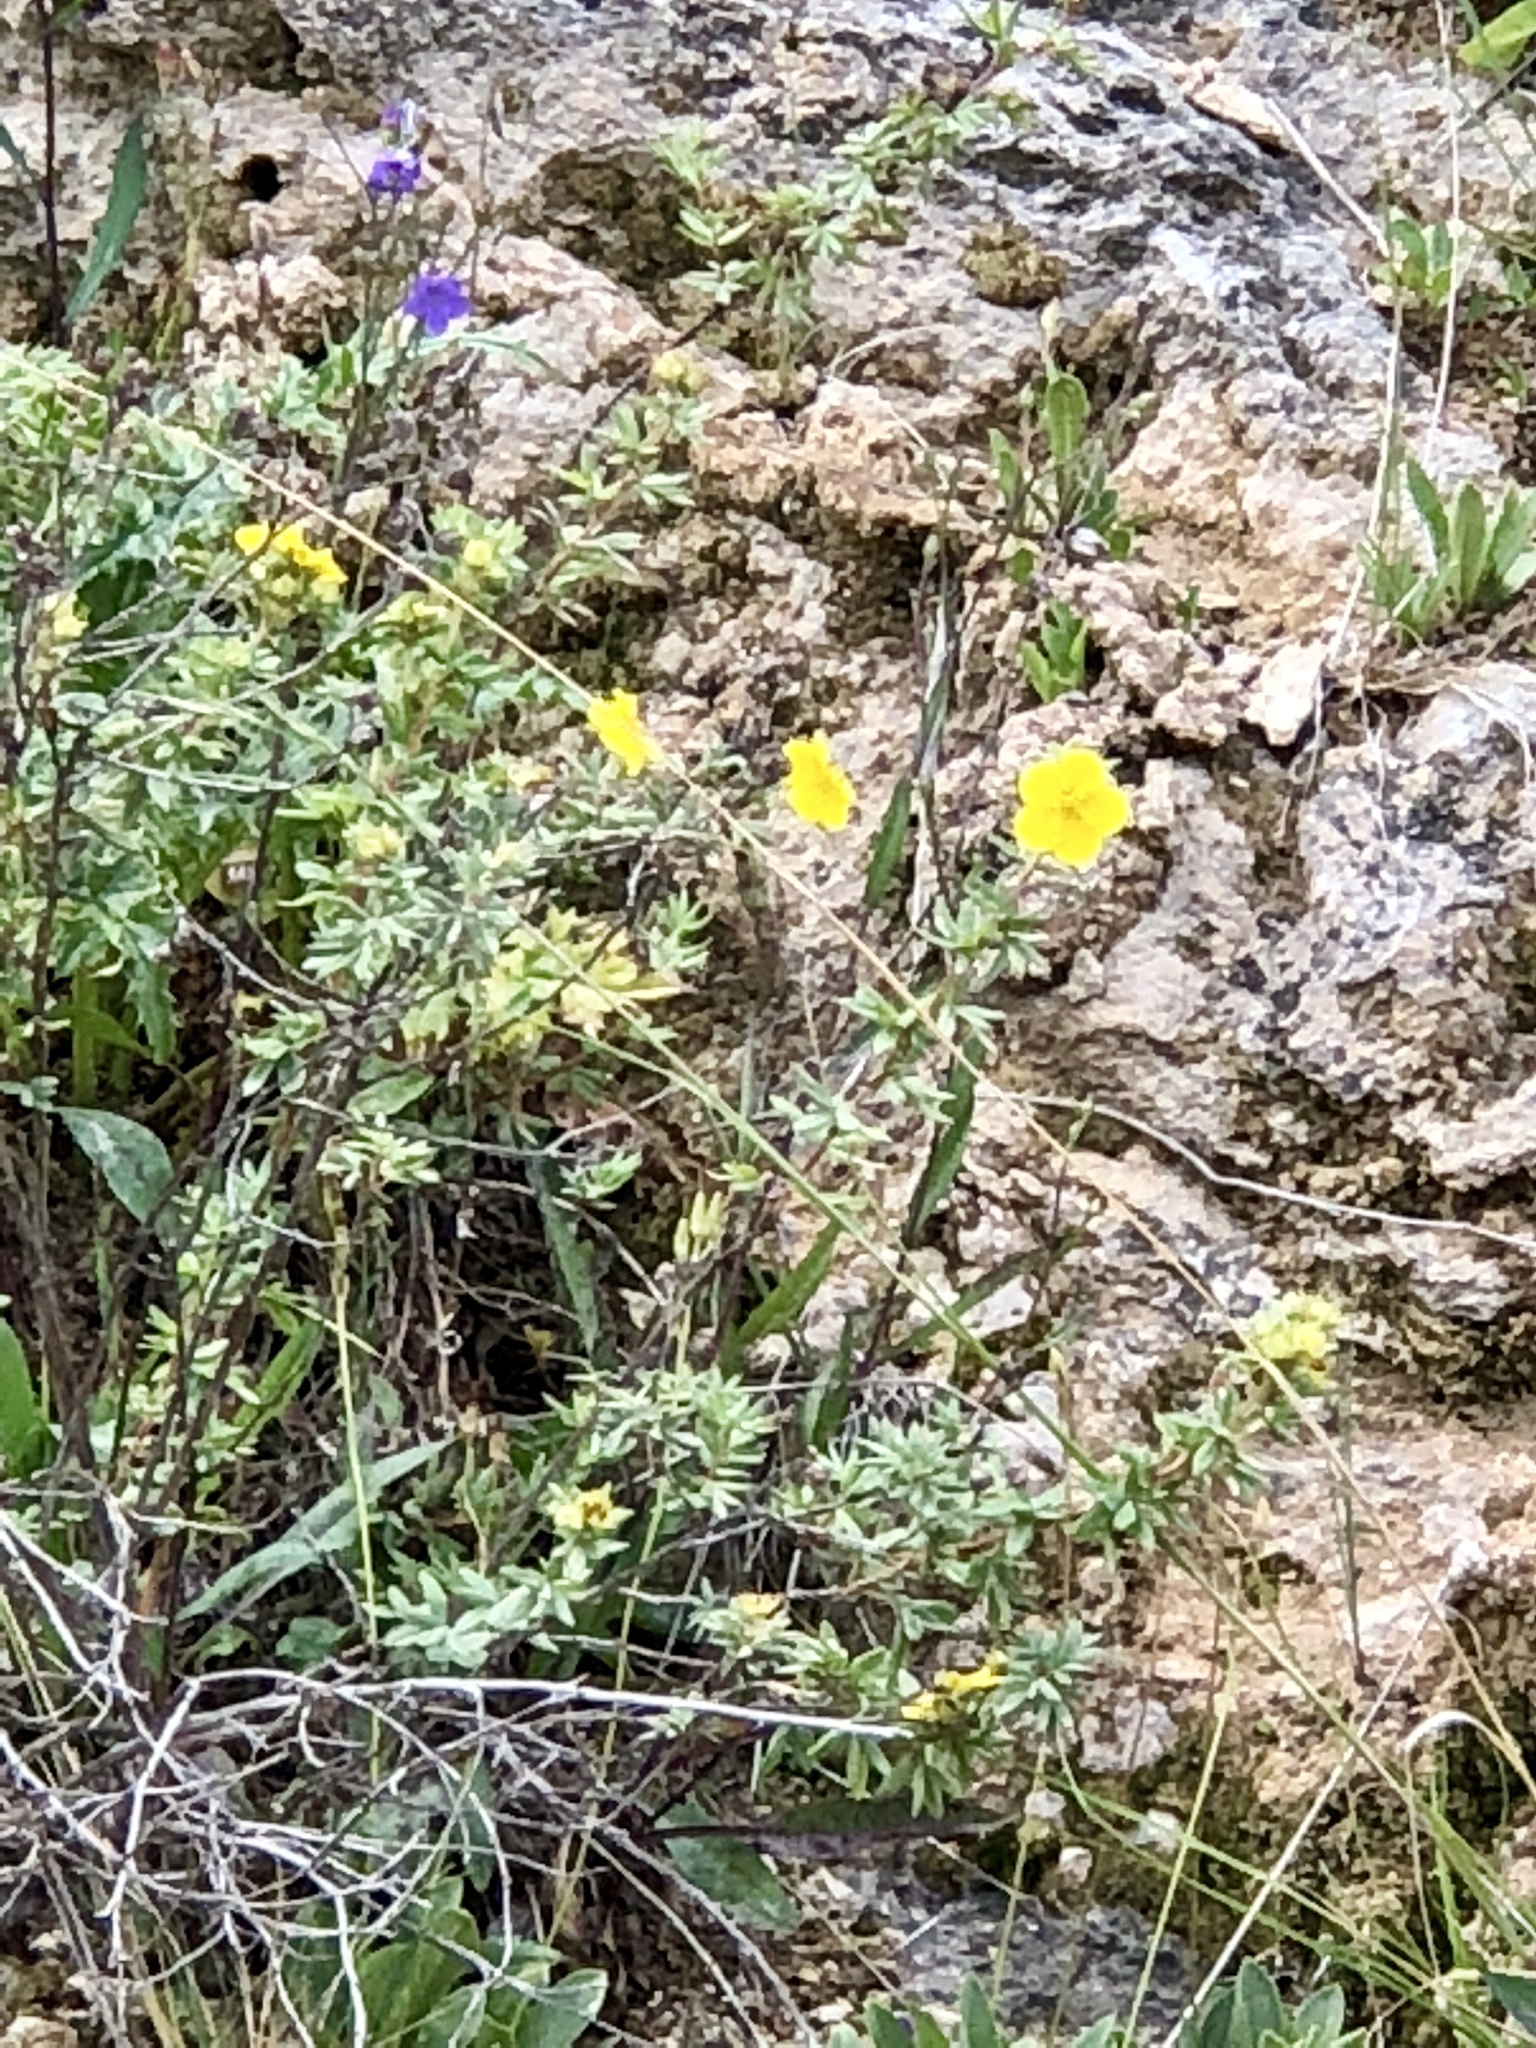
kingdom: Plantae
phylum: Tracheophyta
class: Magnoliopsida
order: Rosales
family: Rosaceae
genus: Dasiphora
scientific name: Dasiphora fruticosa
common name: Shrubby cinquefoil
